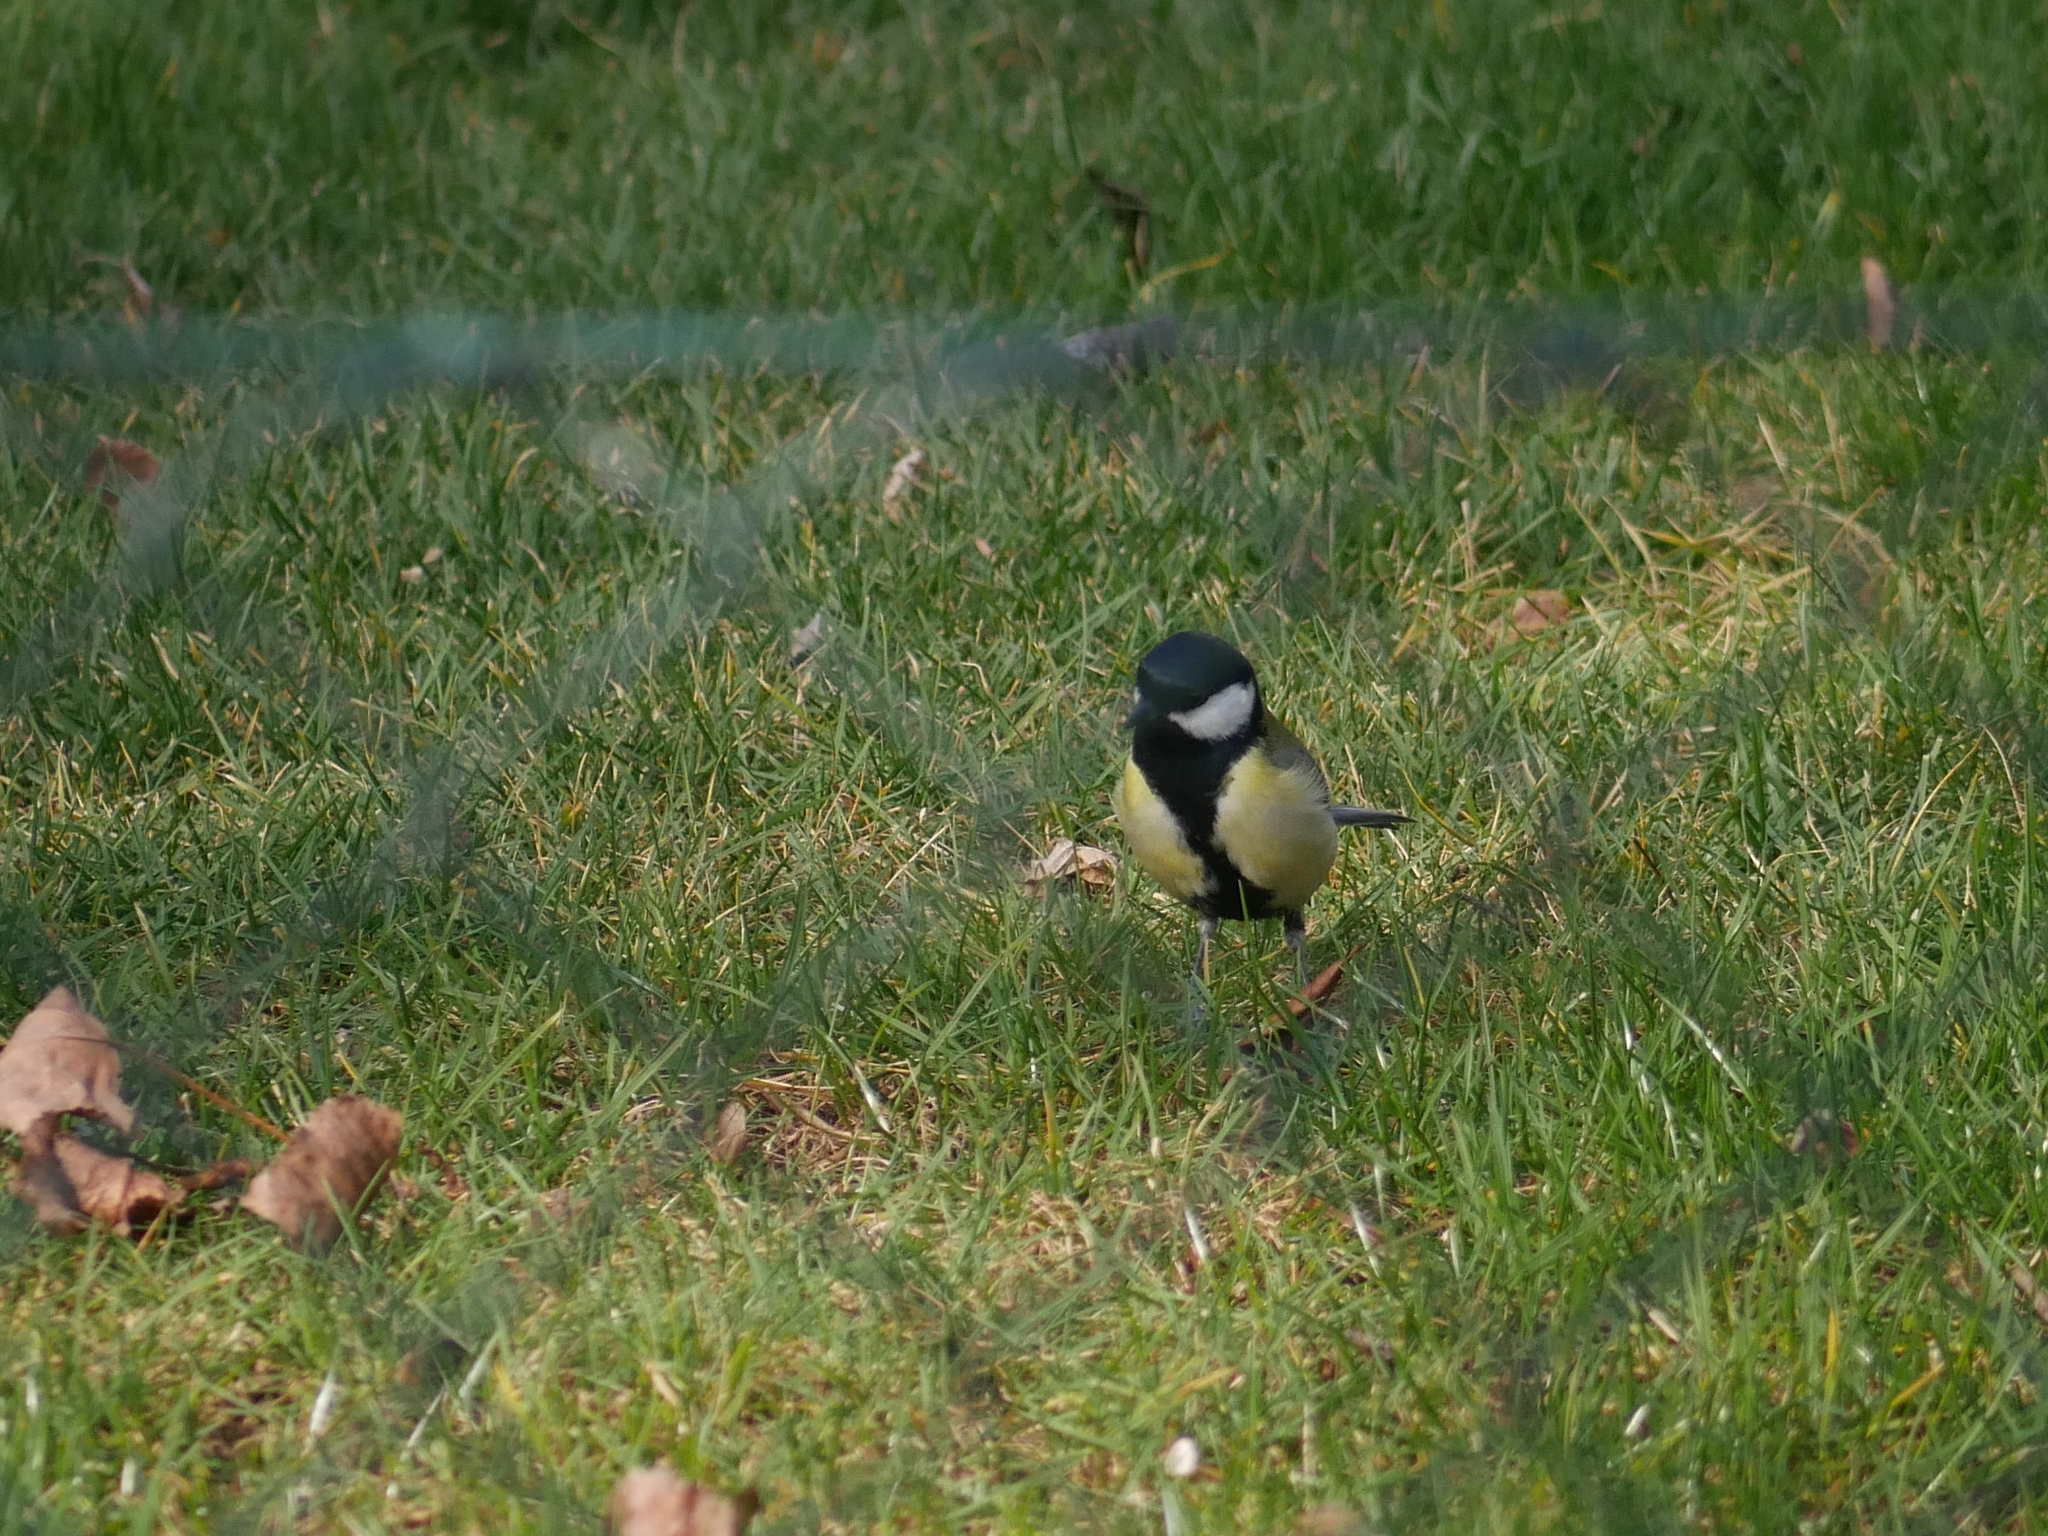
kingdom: Animalia
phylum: Chordata
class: Aves
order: Passeriformes
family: Paridae
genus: Parus
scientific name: Parus major
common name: Great tit
